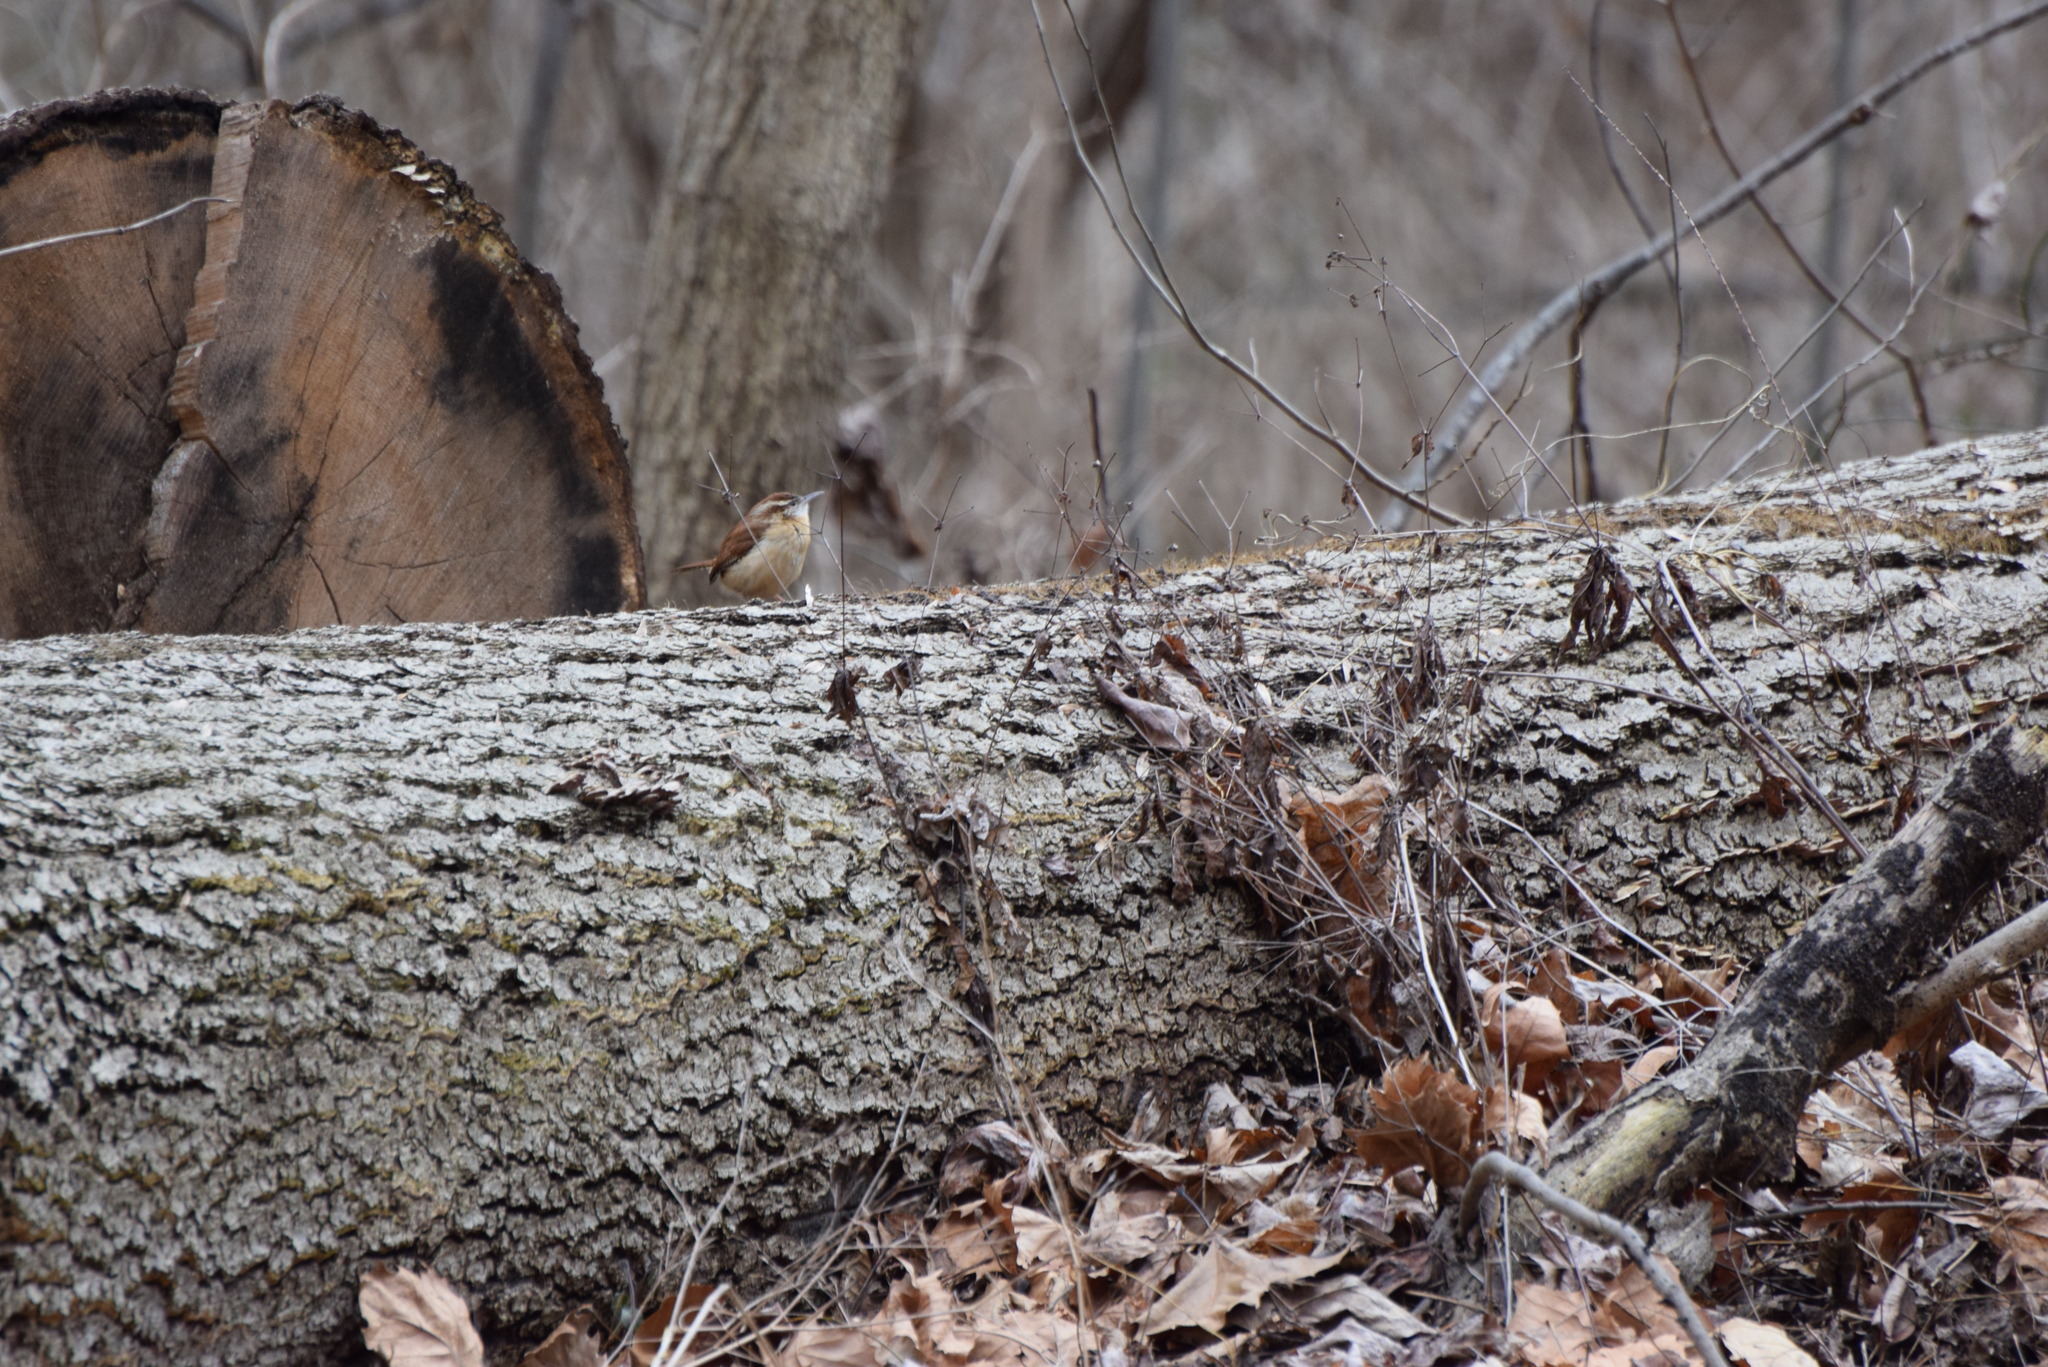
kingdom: Animalia
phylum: Chordata
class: Aves
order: Passeriformes
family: Troglodytidae
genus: Thryothorus
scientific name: Thryothorus ludovicianus
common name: Carolina wren
